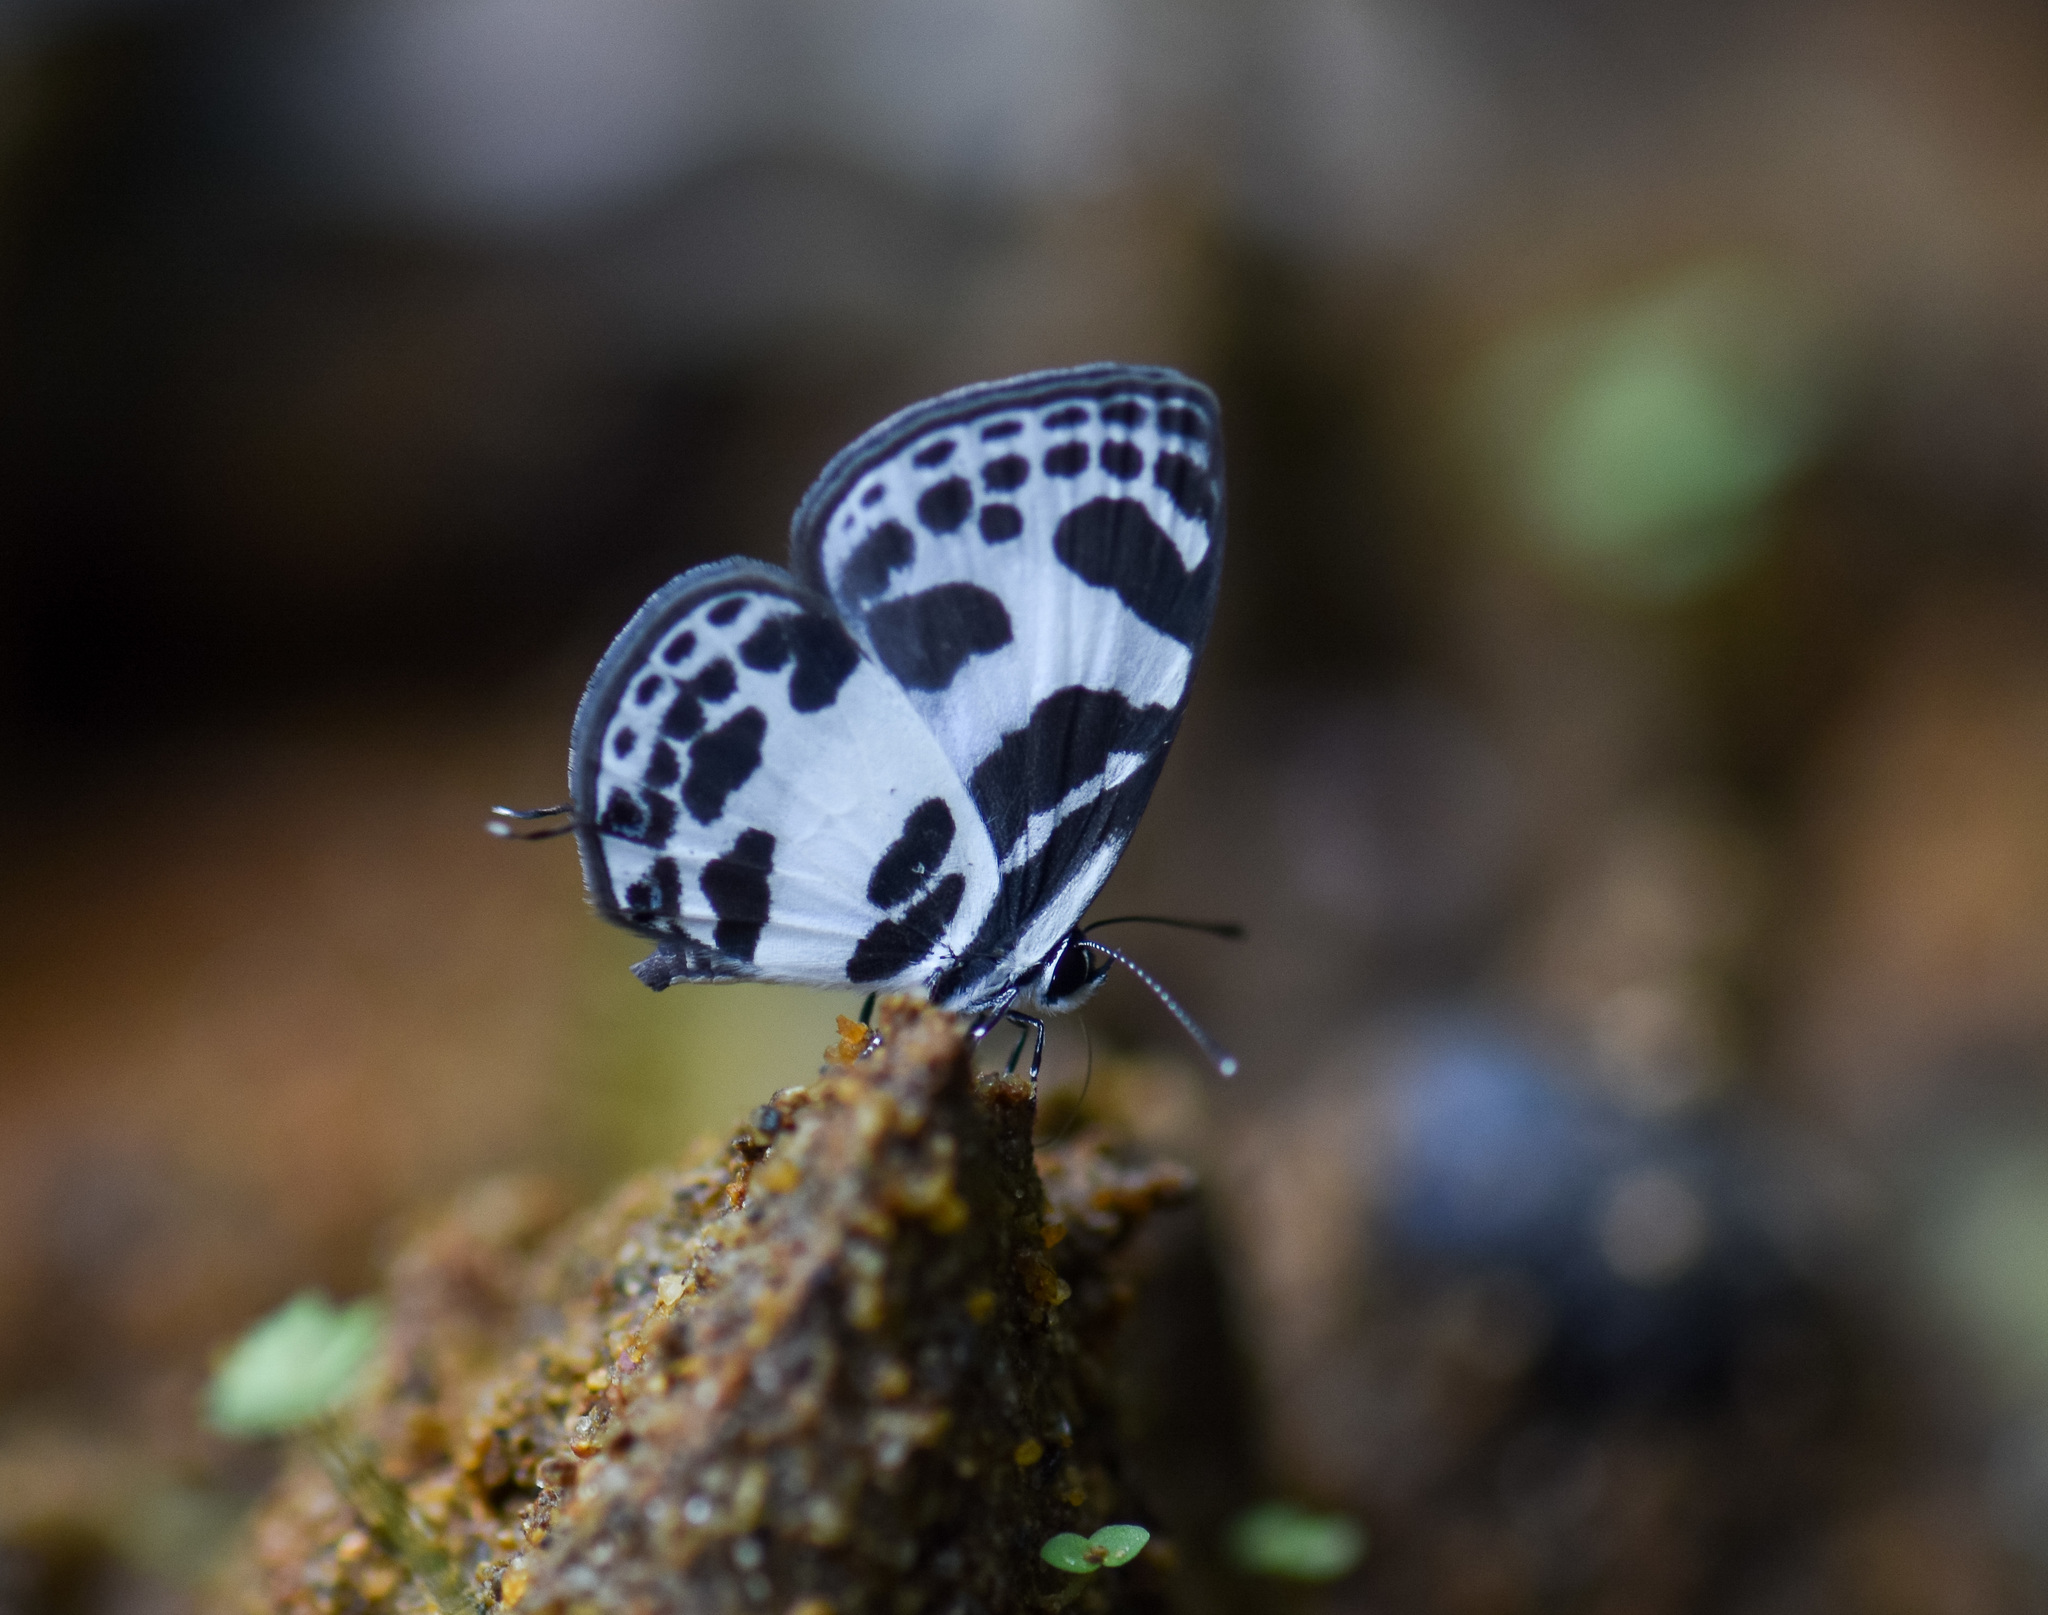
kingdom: Animalia
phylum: Arthropoda
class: Insecta
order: Lepidoptera
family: Lycaenidae
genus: Discolampa
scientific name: Discolampa ethion
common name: Banded blue pierrot
